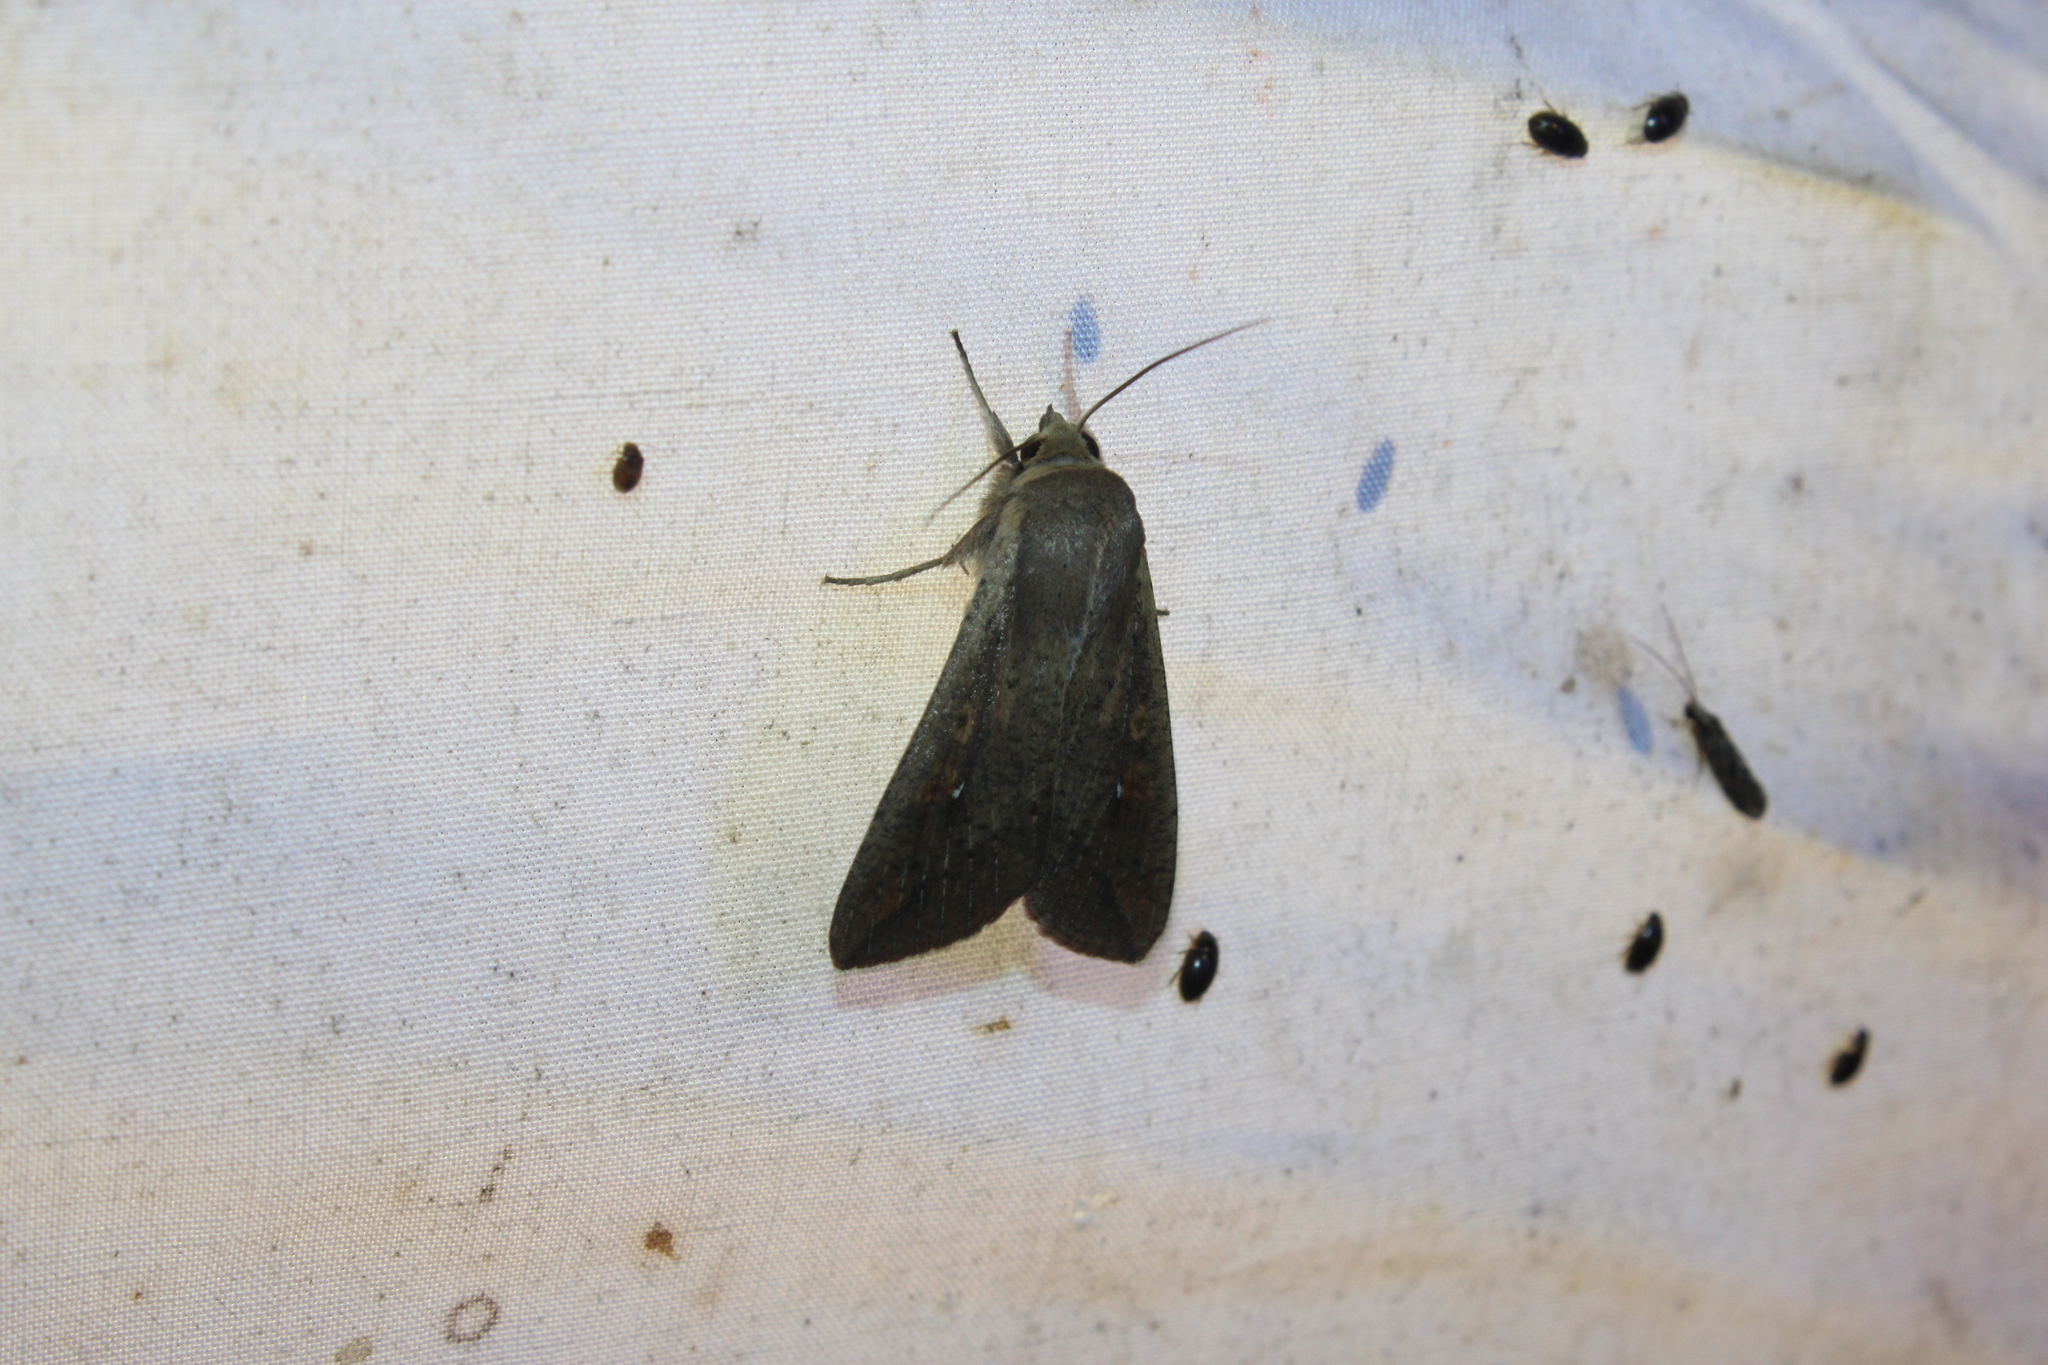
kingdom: Animalia
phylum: Arthropoda
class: Insecta
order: Lepidoptera
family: Noctuidae
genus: Mythimna
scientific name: Mythimna unipuncta
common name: White-speck
